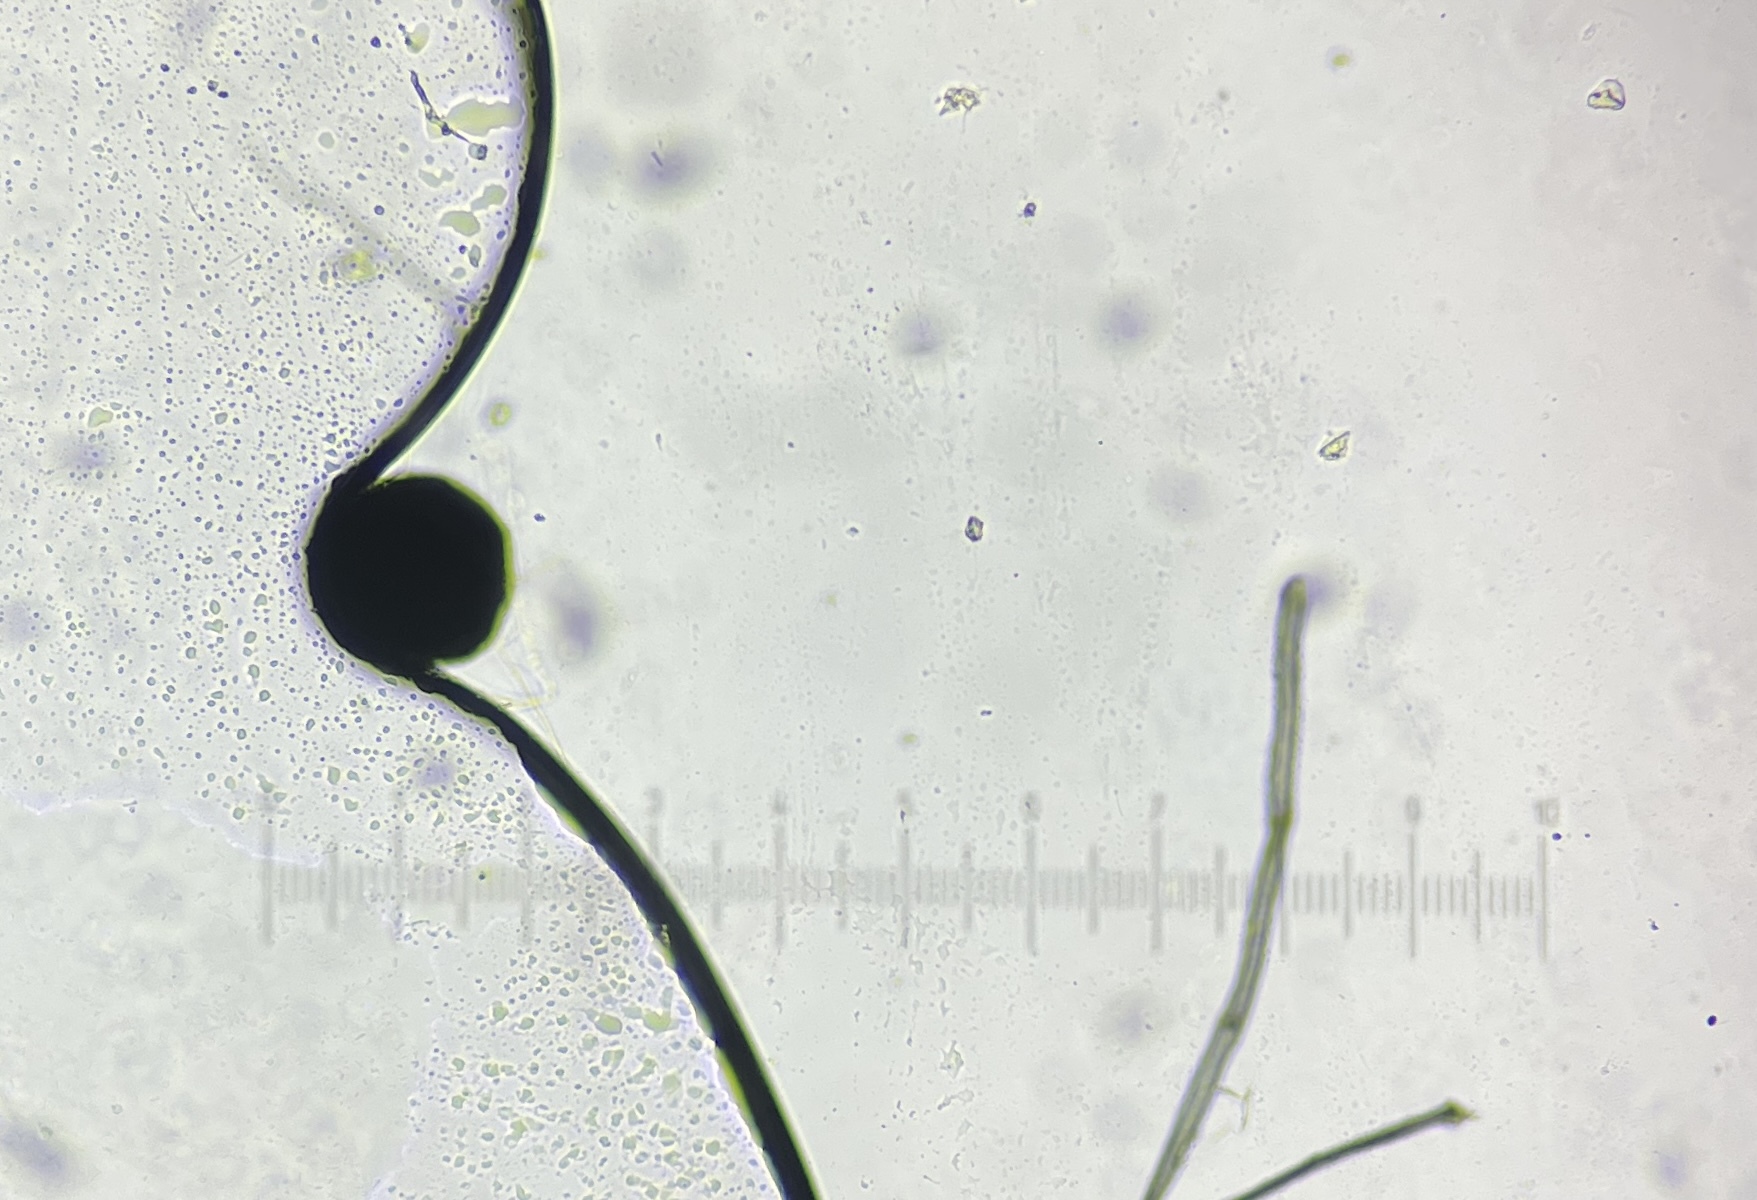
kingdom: Fungi
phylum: Ascomycota
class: Dothideomycetes
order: Pleosporales
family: Sporormiaceae
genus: Preussia
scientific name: Preussia isomera
